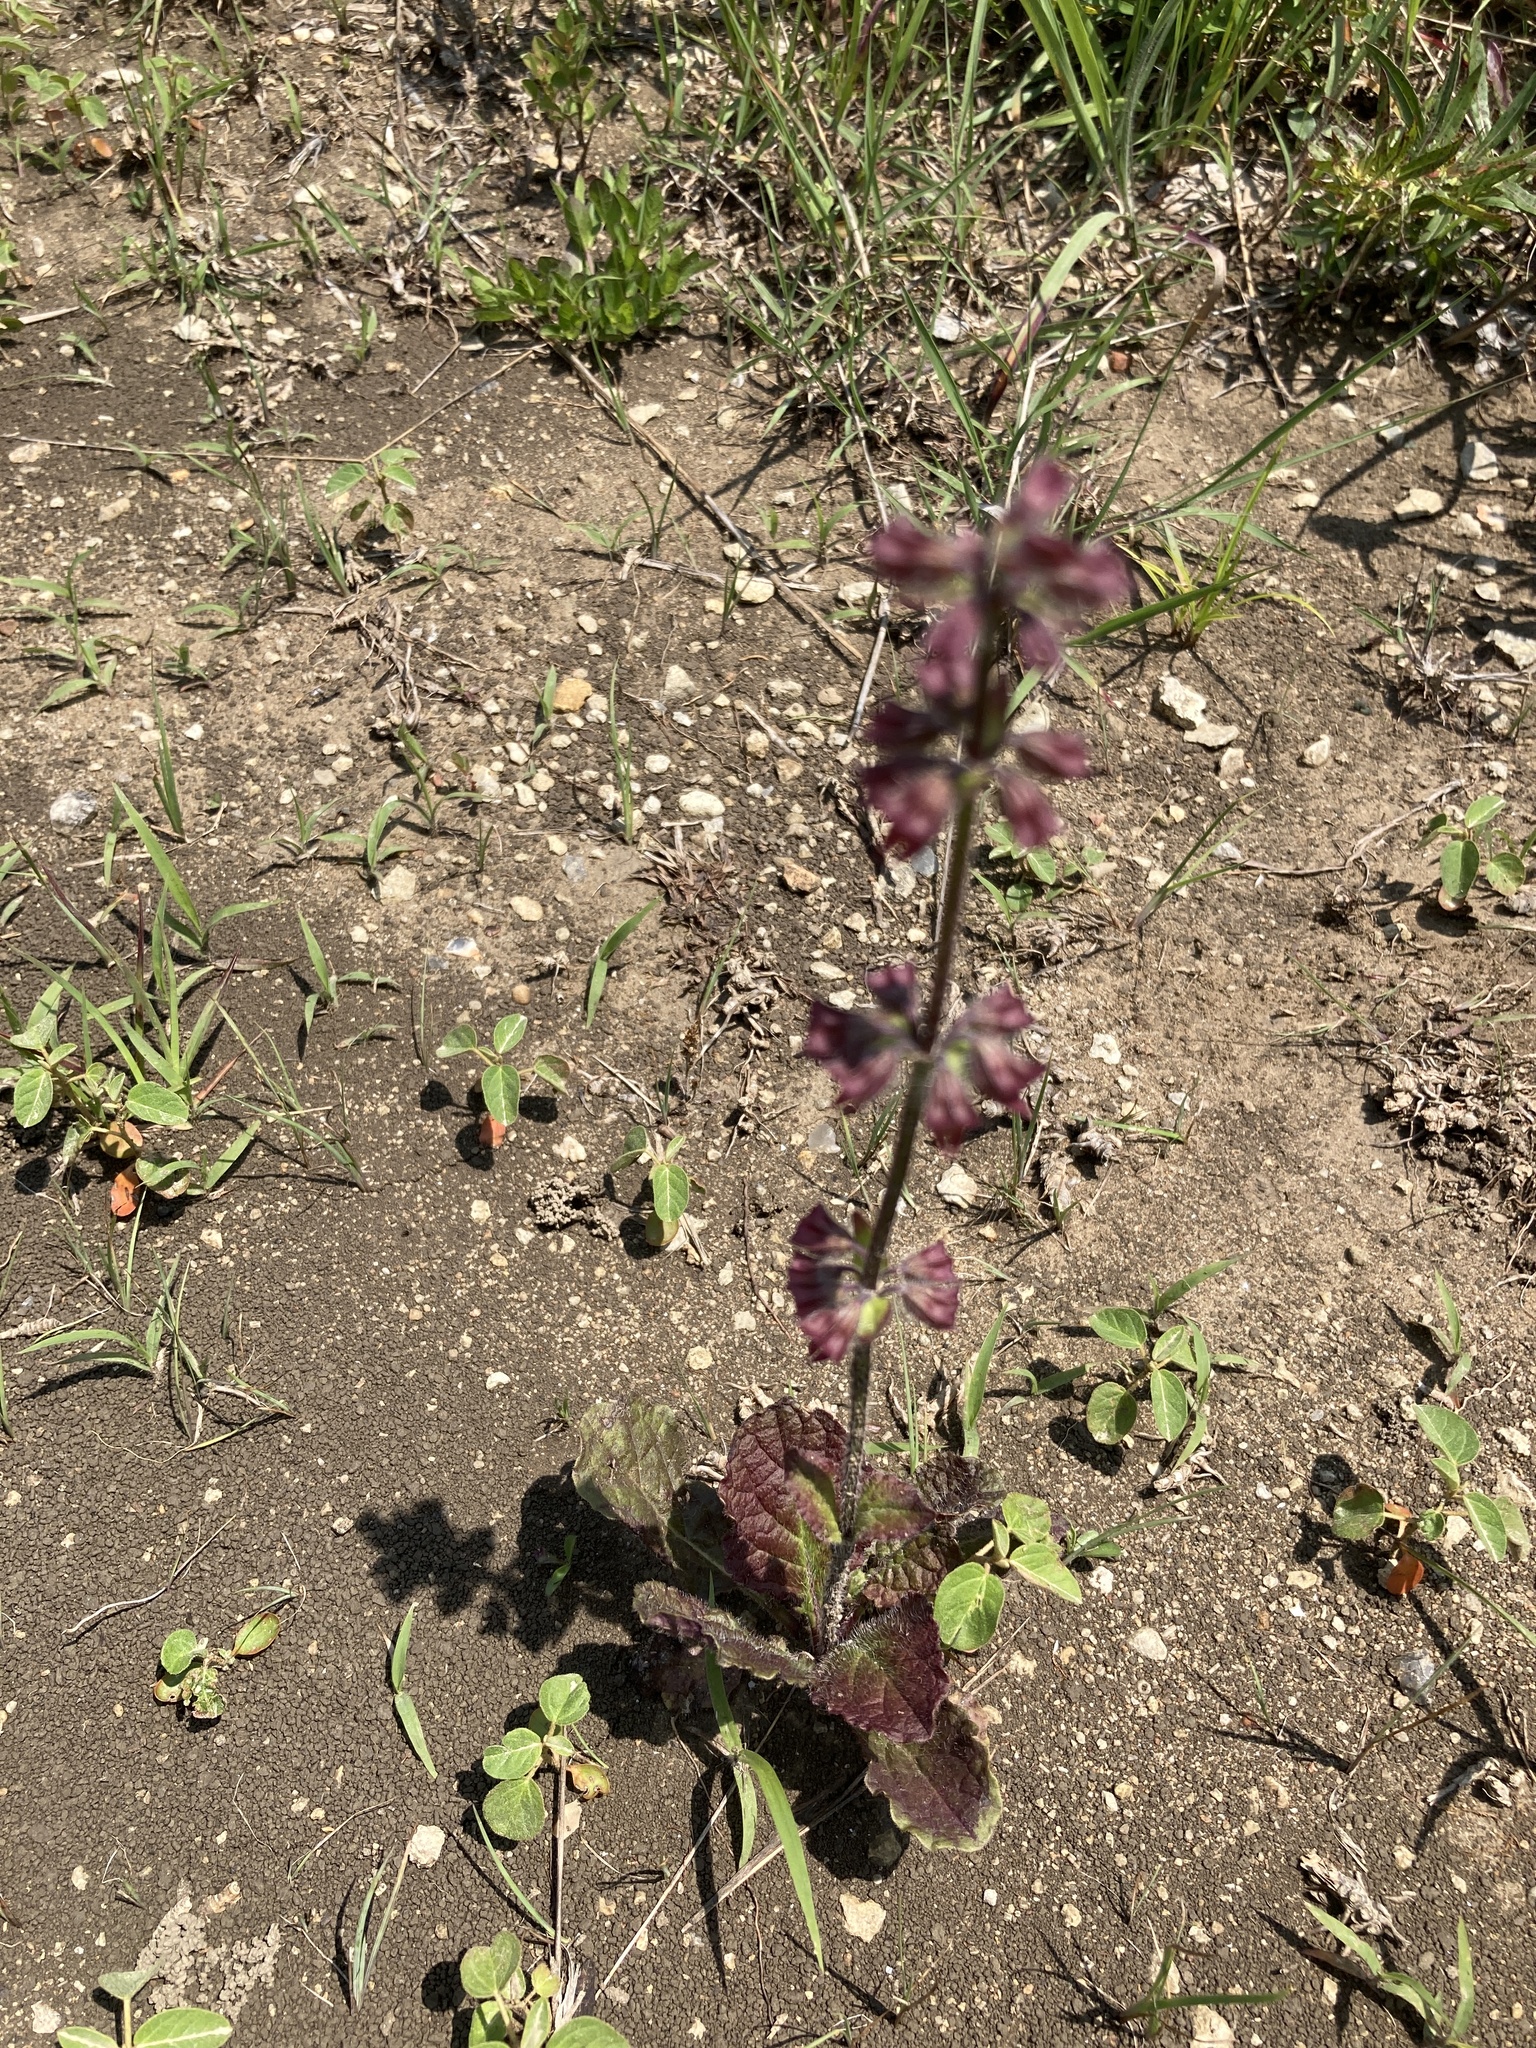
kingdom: Plantae
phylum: Tracheophyta
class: Magnoliopsida
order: Lamiales
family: Lamiaceae
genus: Salvia
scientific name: Salvia lyrata
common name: Cancerweed
